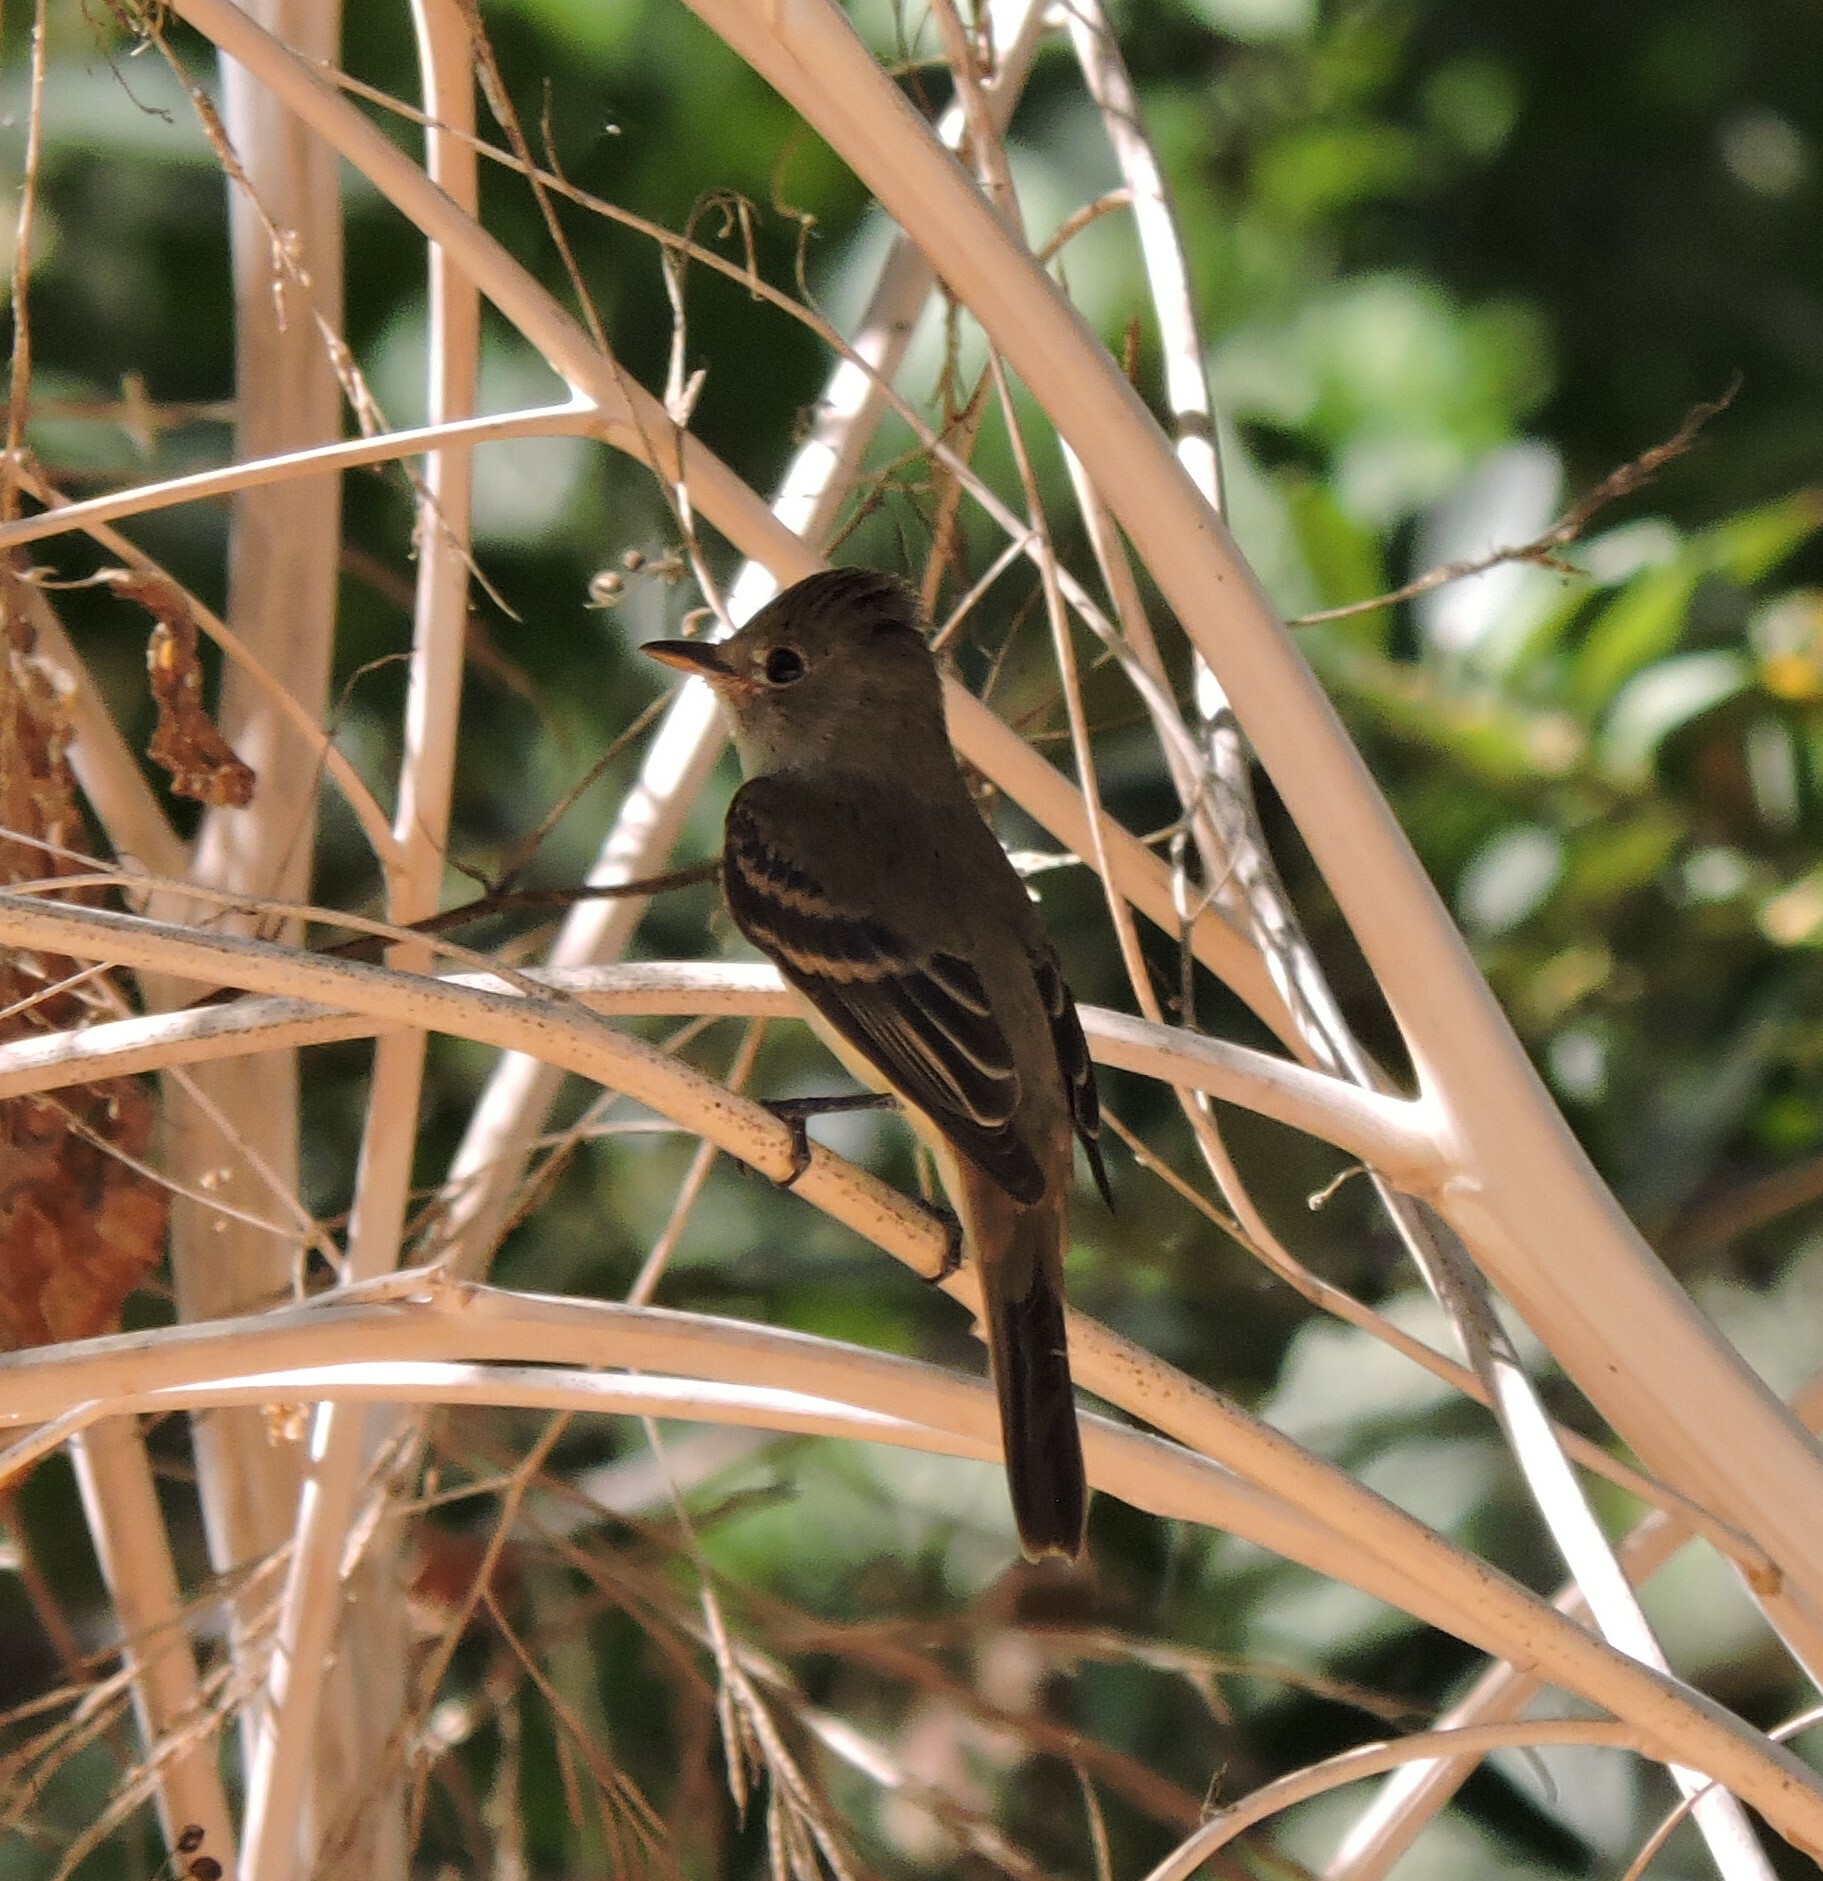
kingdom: Animalia
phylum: Chordata
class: Aves
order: Passeriformes
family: Tyrannidae
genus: Empidonax
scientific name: Empidonax traillii
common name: Willow flycatcher
